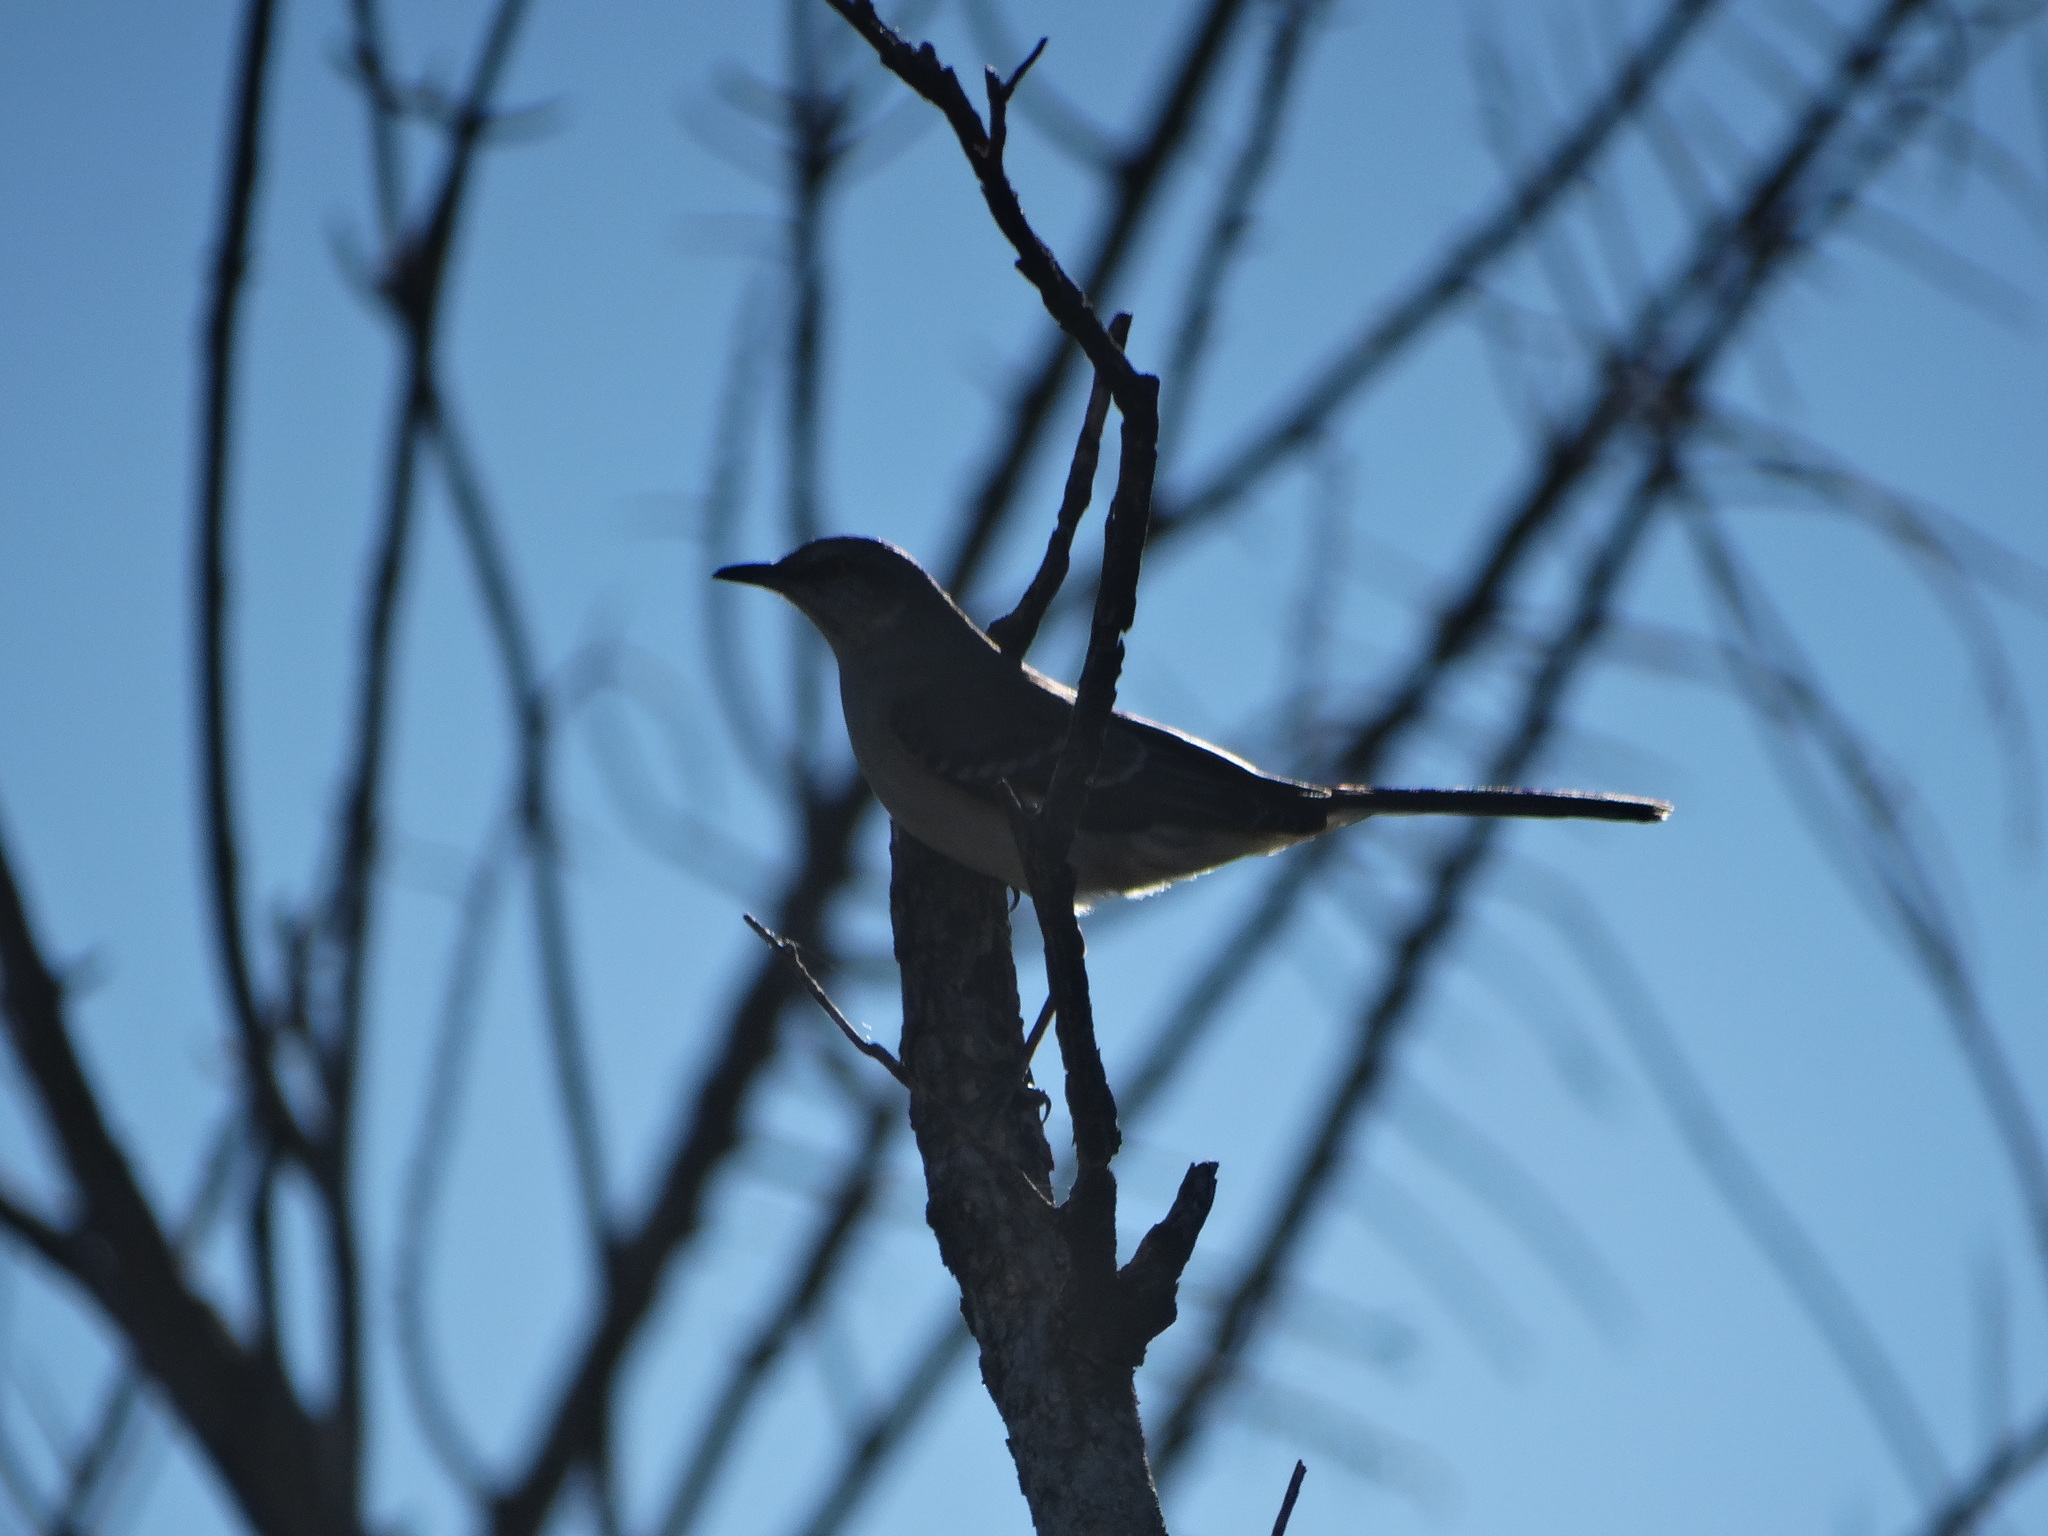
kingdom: Animalia
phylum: Chordata
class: Aves
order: Passeriformes
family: Mimidae
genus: Mimus
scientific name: Mimus polyglottos
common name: Northern mockingbird
